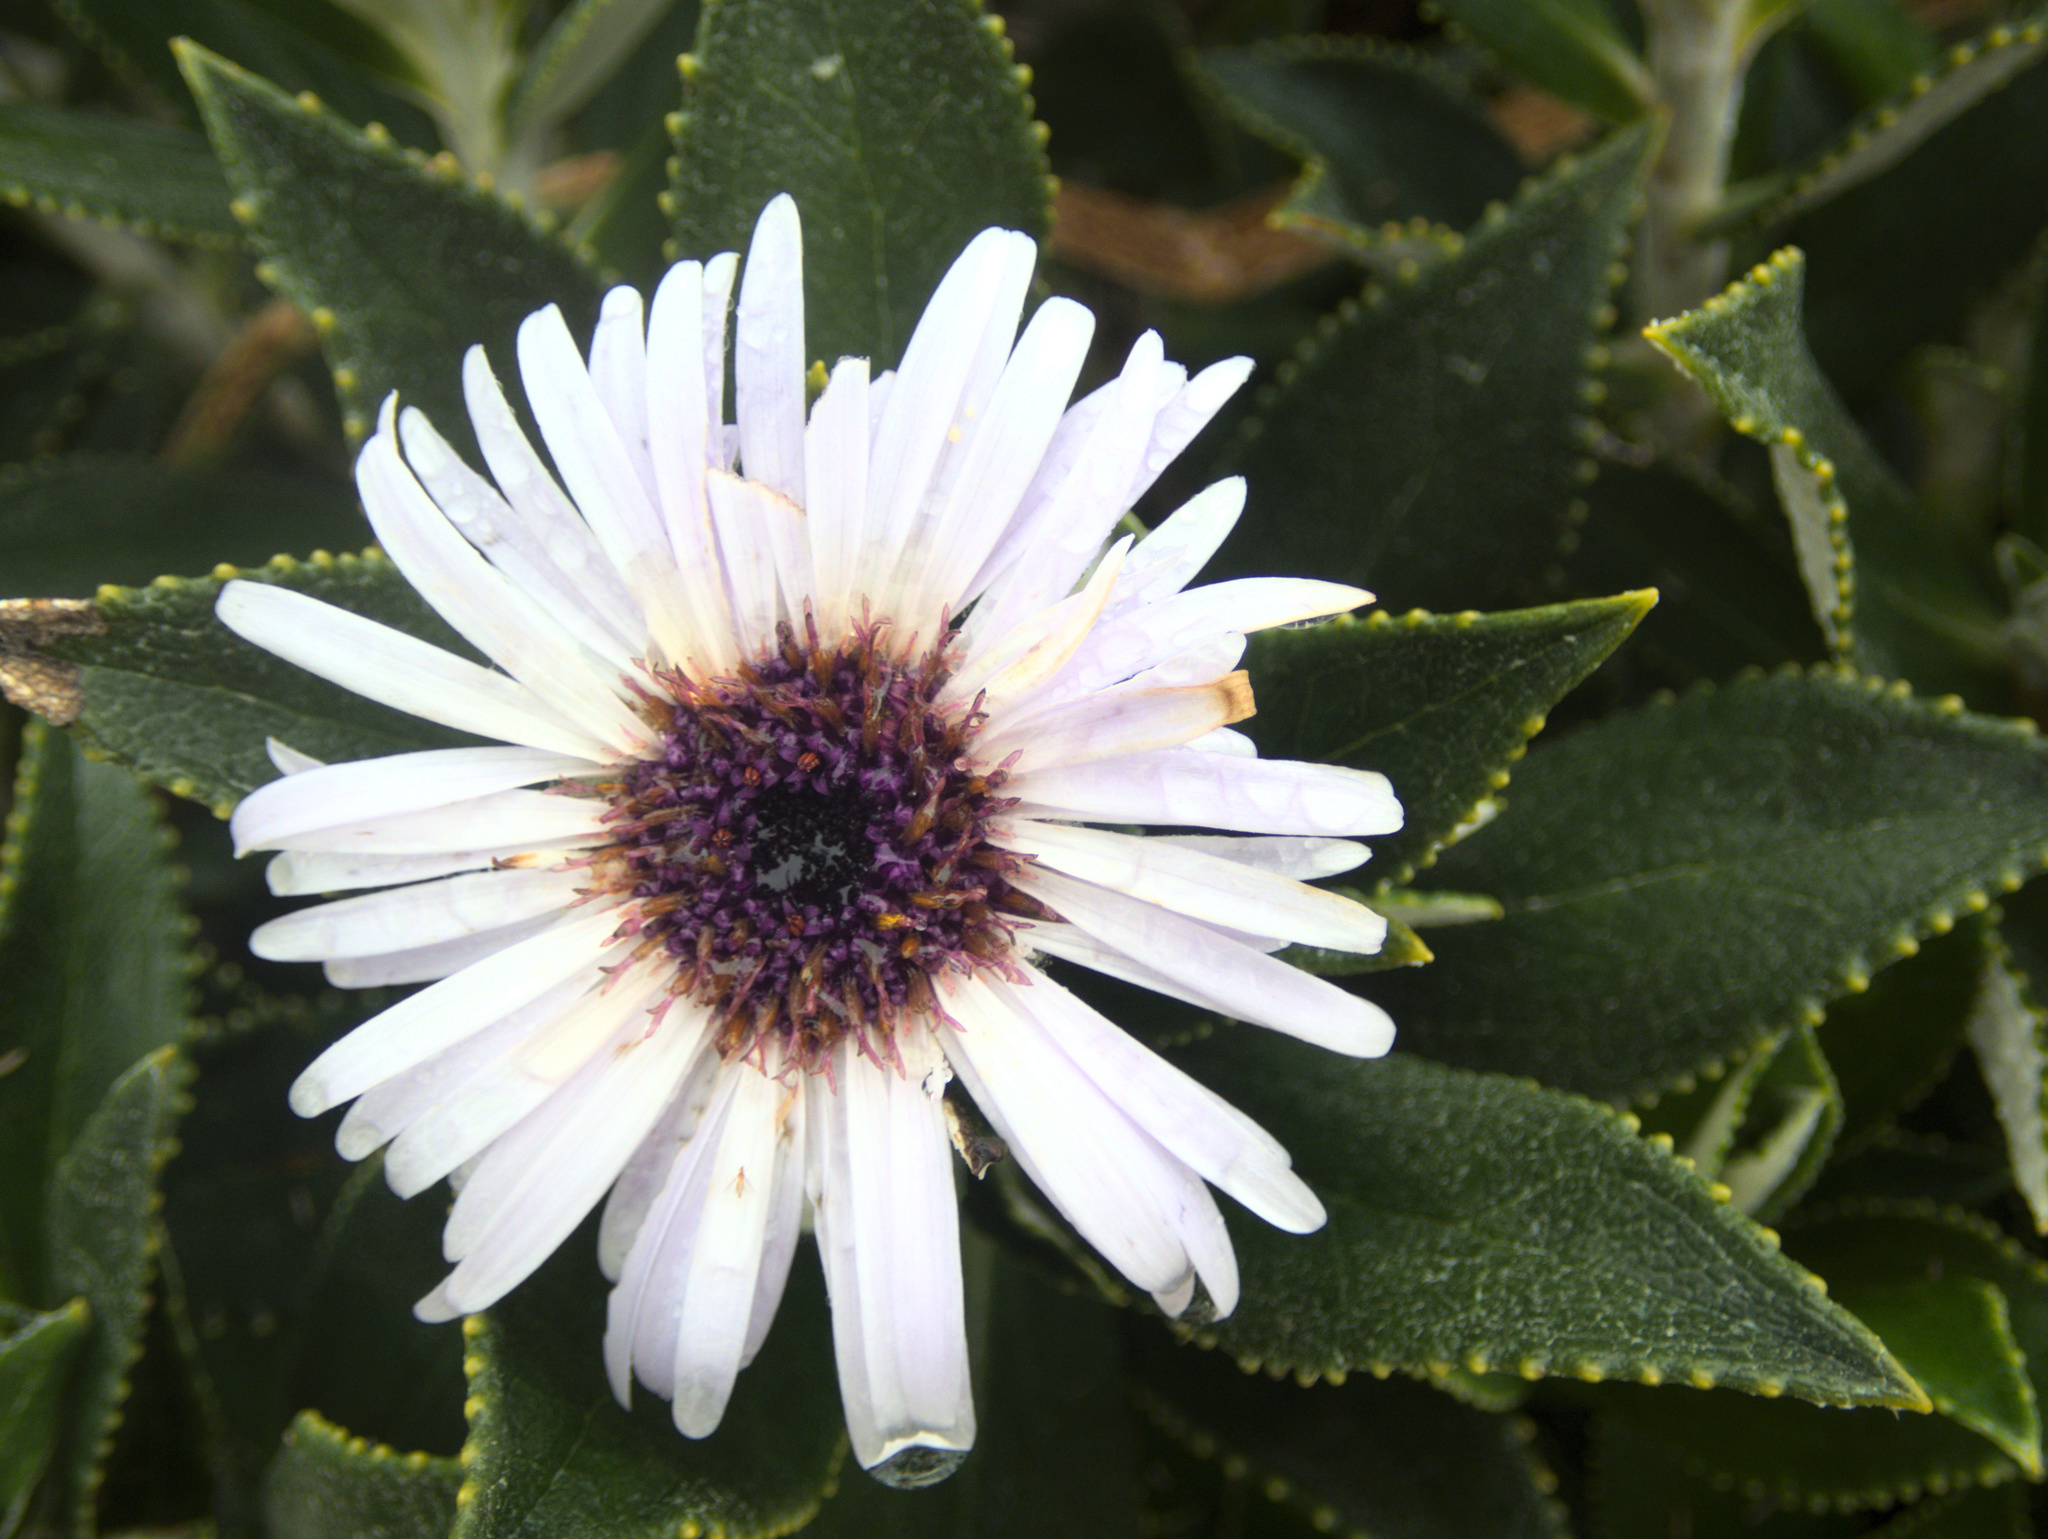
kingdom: Plantae
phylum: Tracheophyta
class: Magnoliopsida
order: Asterales
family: Asteraceae
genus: Macrolearia
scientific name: Macrolearia chathamica
